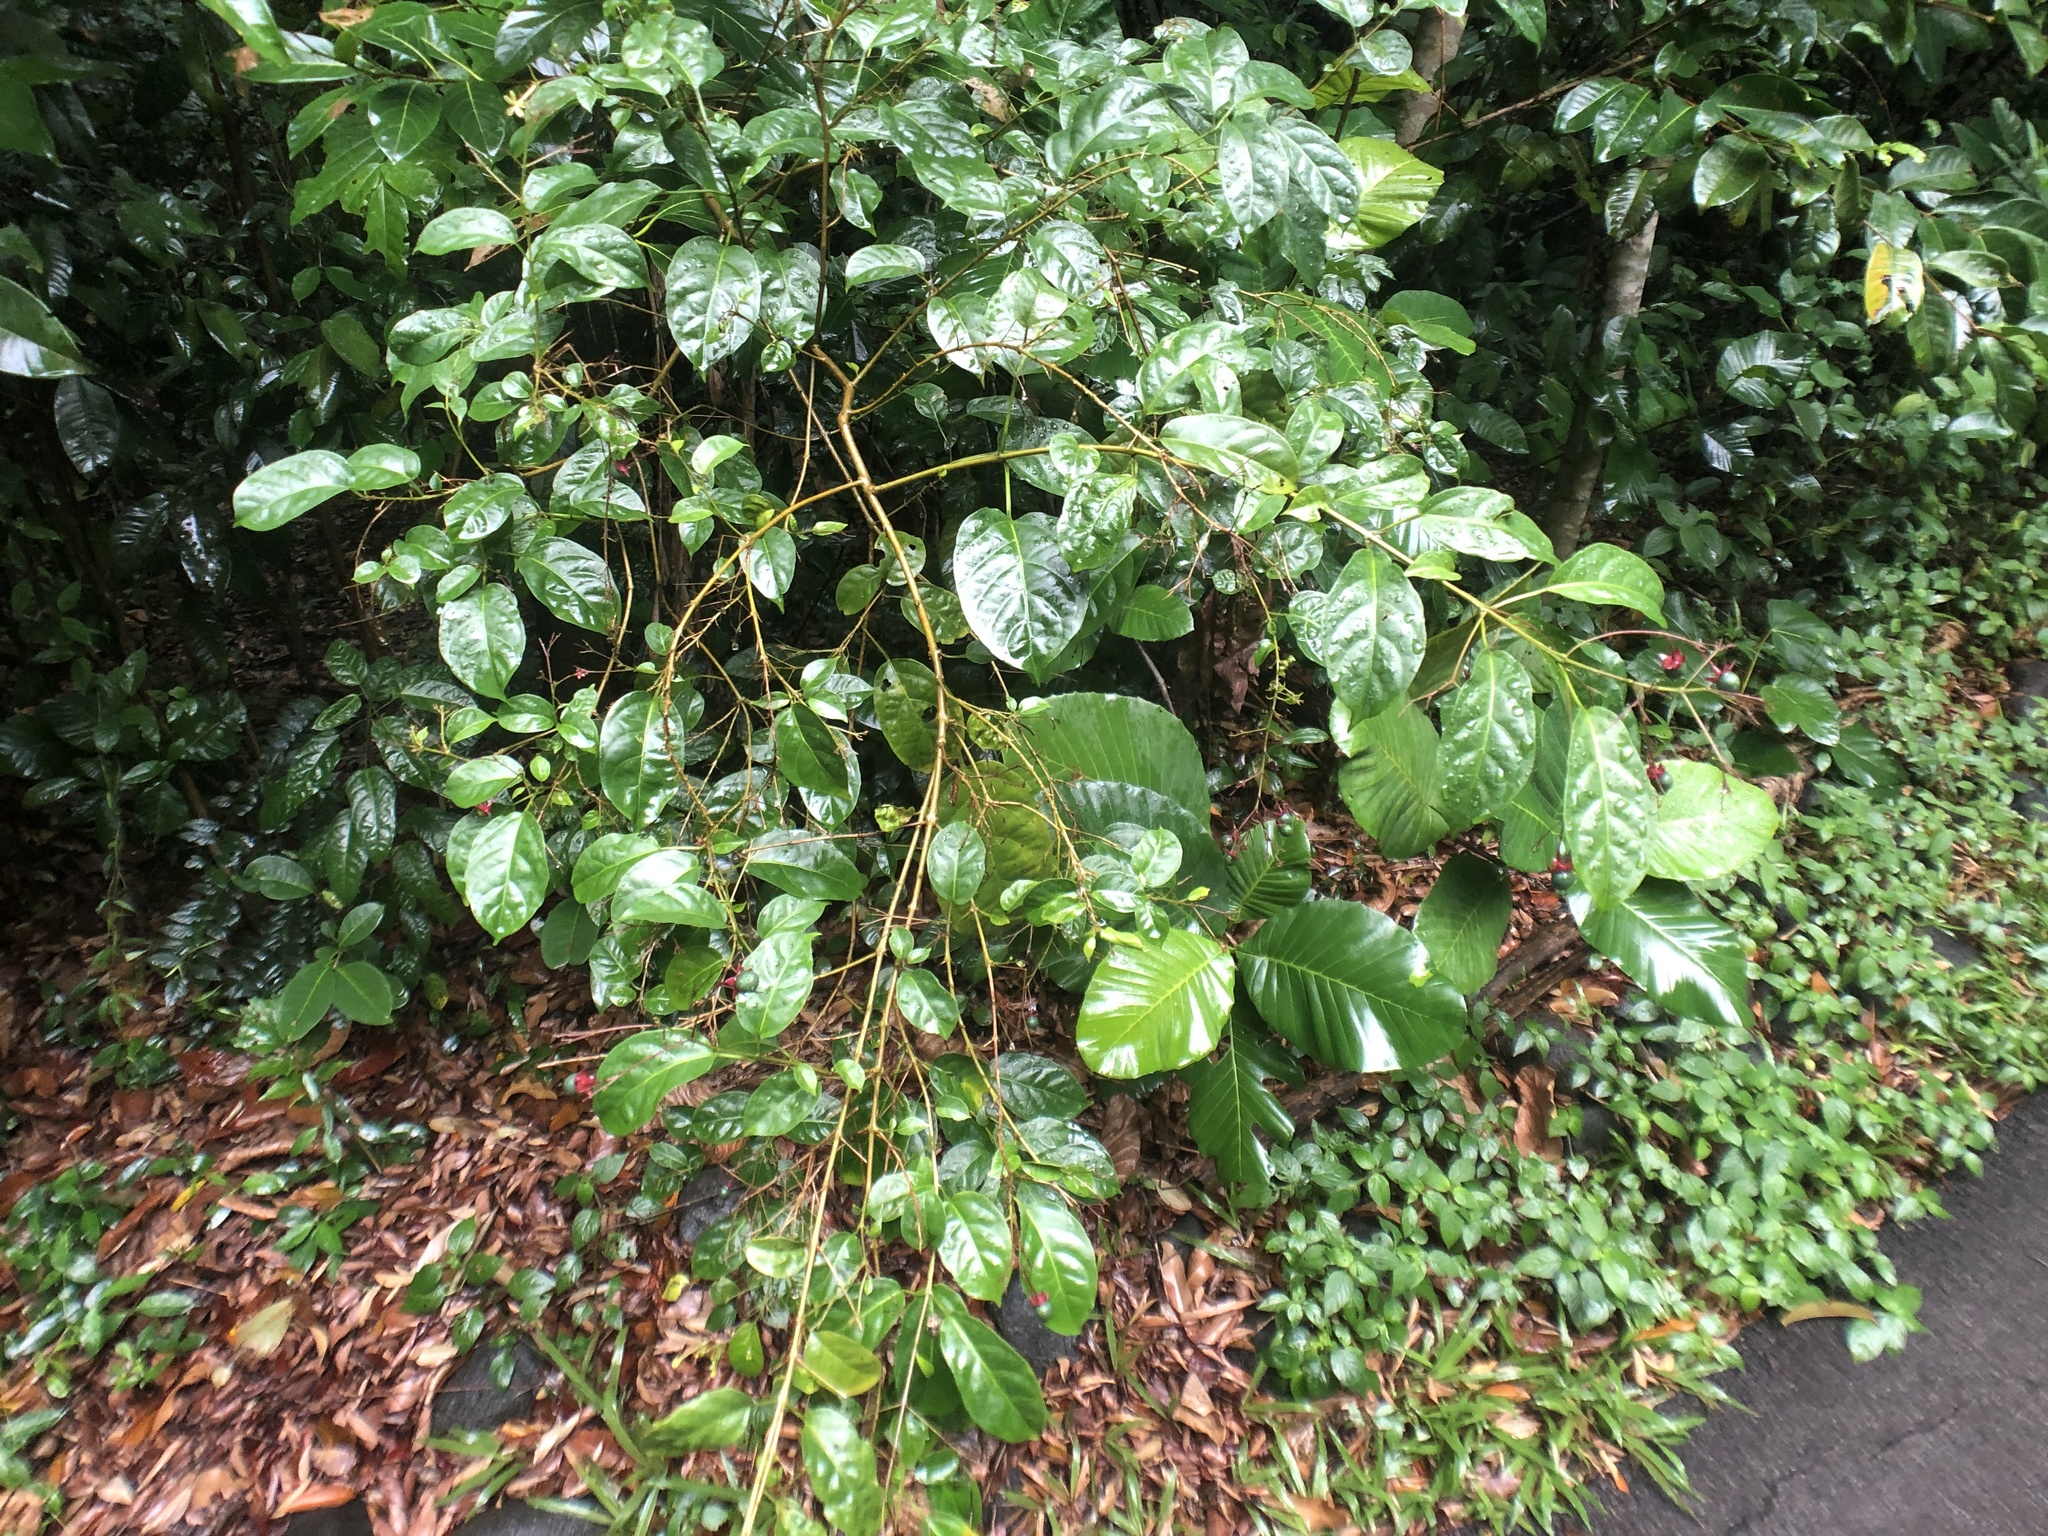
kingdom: Plantae
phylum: Tracheophyta
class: Magnoliopsida
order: Lamiales
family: Lamiaceae
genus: Clerodendrum
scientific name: Clerodendrum laevifolium
